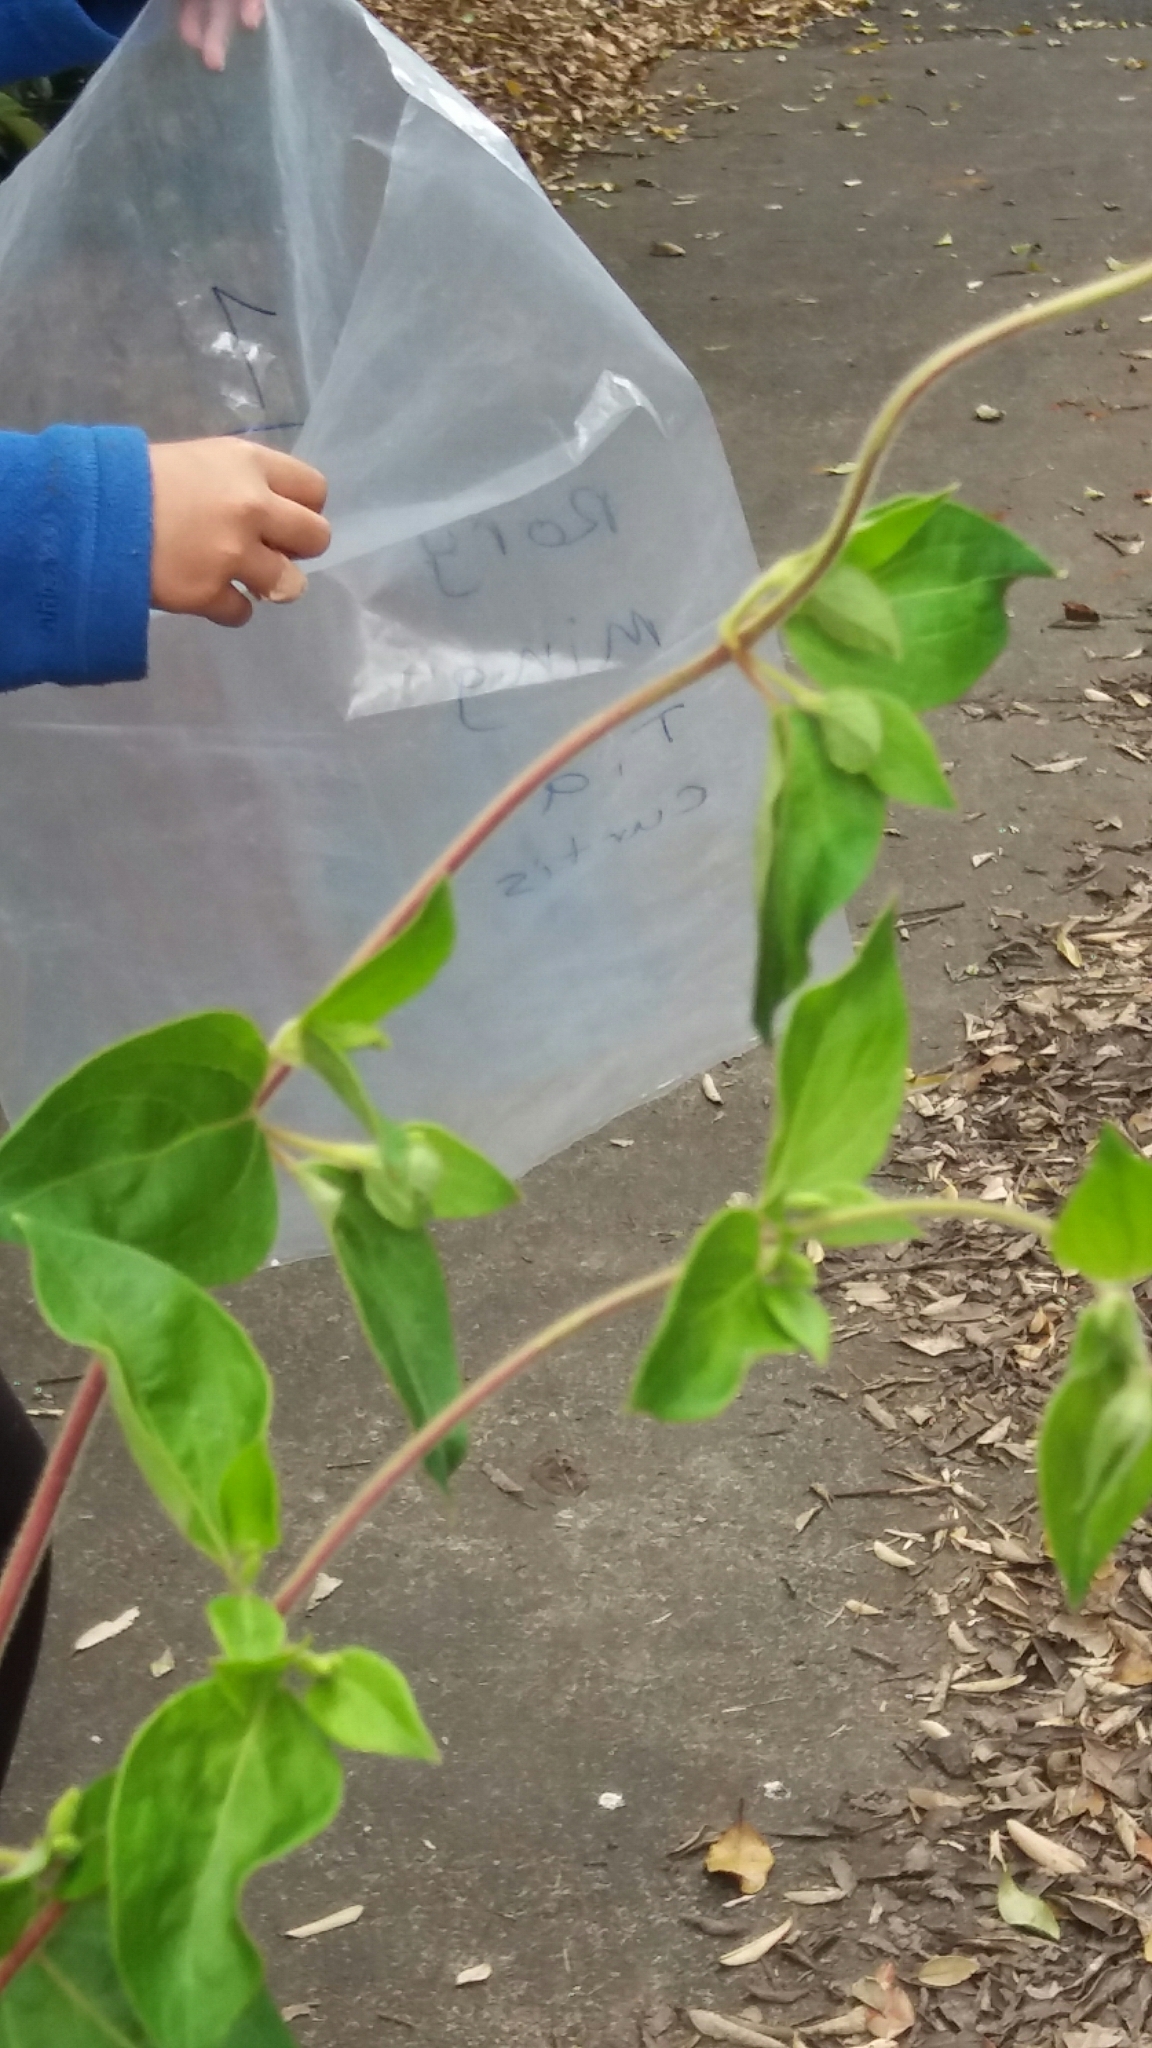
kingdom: Plantae
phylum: Tracheophyta
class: Magnoliopsida
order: Dipsacales
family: Caprifoliaceae
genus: Lonicera
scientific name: Lonicera japonica
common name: Japanese honeysuckle
